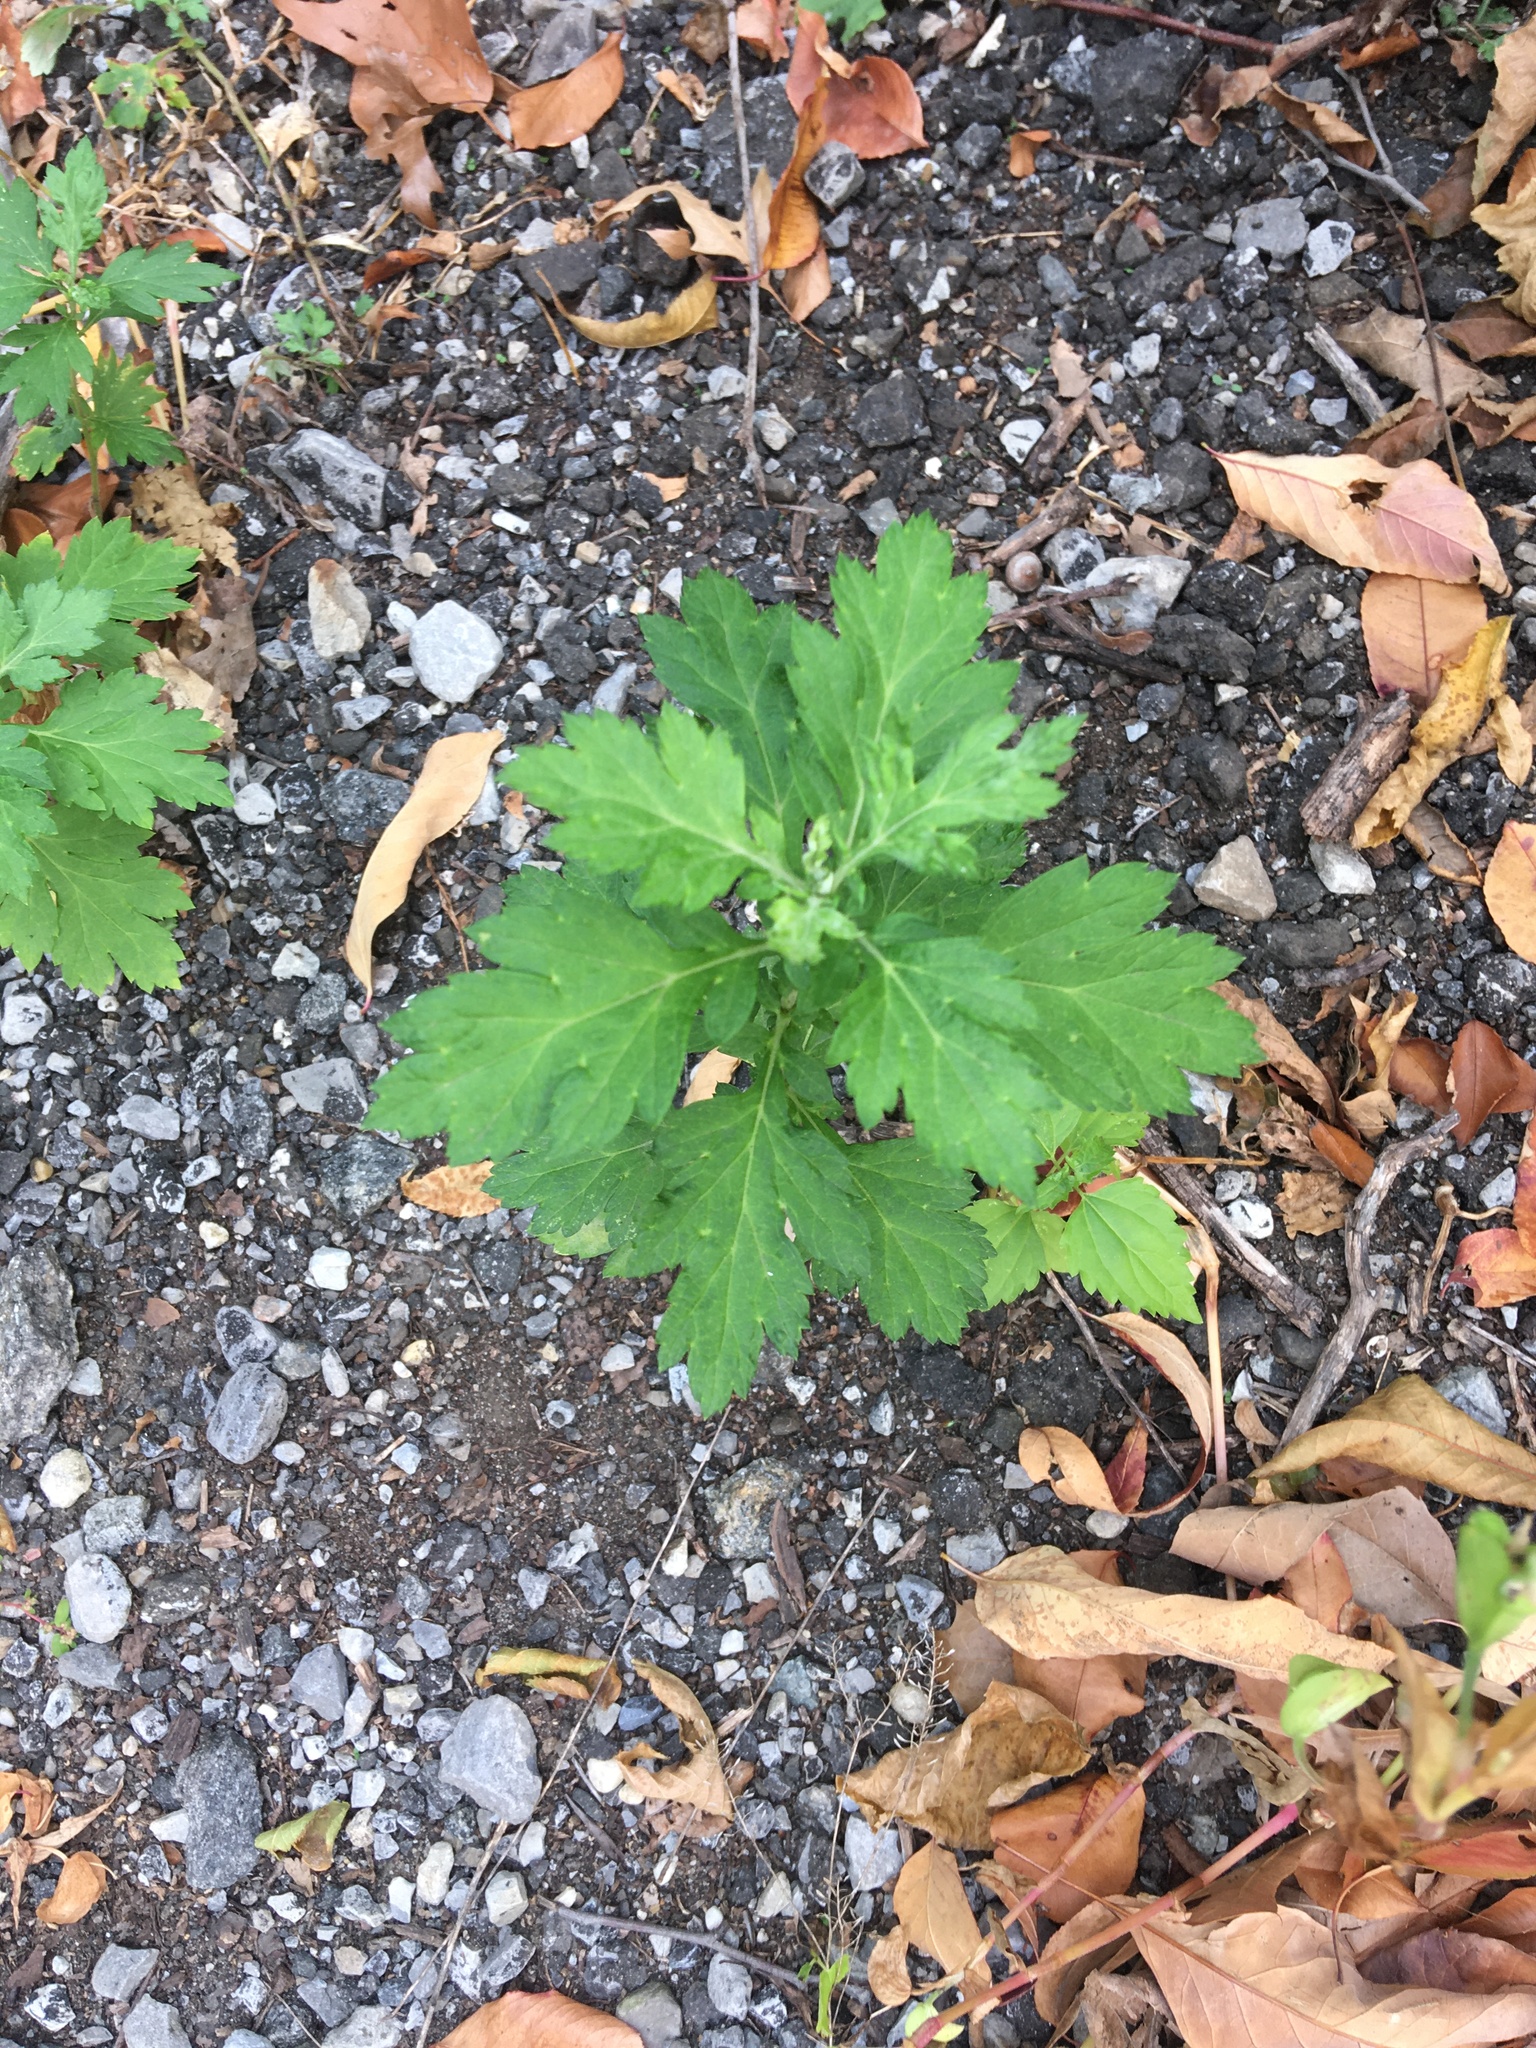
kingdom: Plantae
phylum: Tracheophyta
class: Magnoliopsida
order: Asterales
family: Asteraceae
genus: Artemisia
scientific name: Artemisia vulgaris
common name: Mugwort
